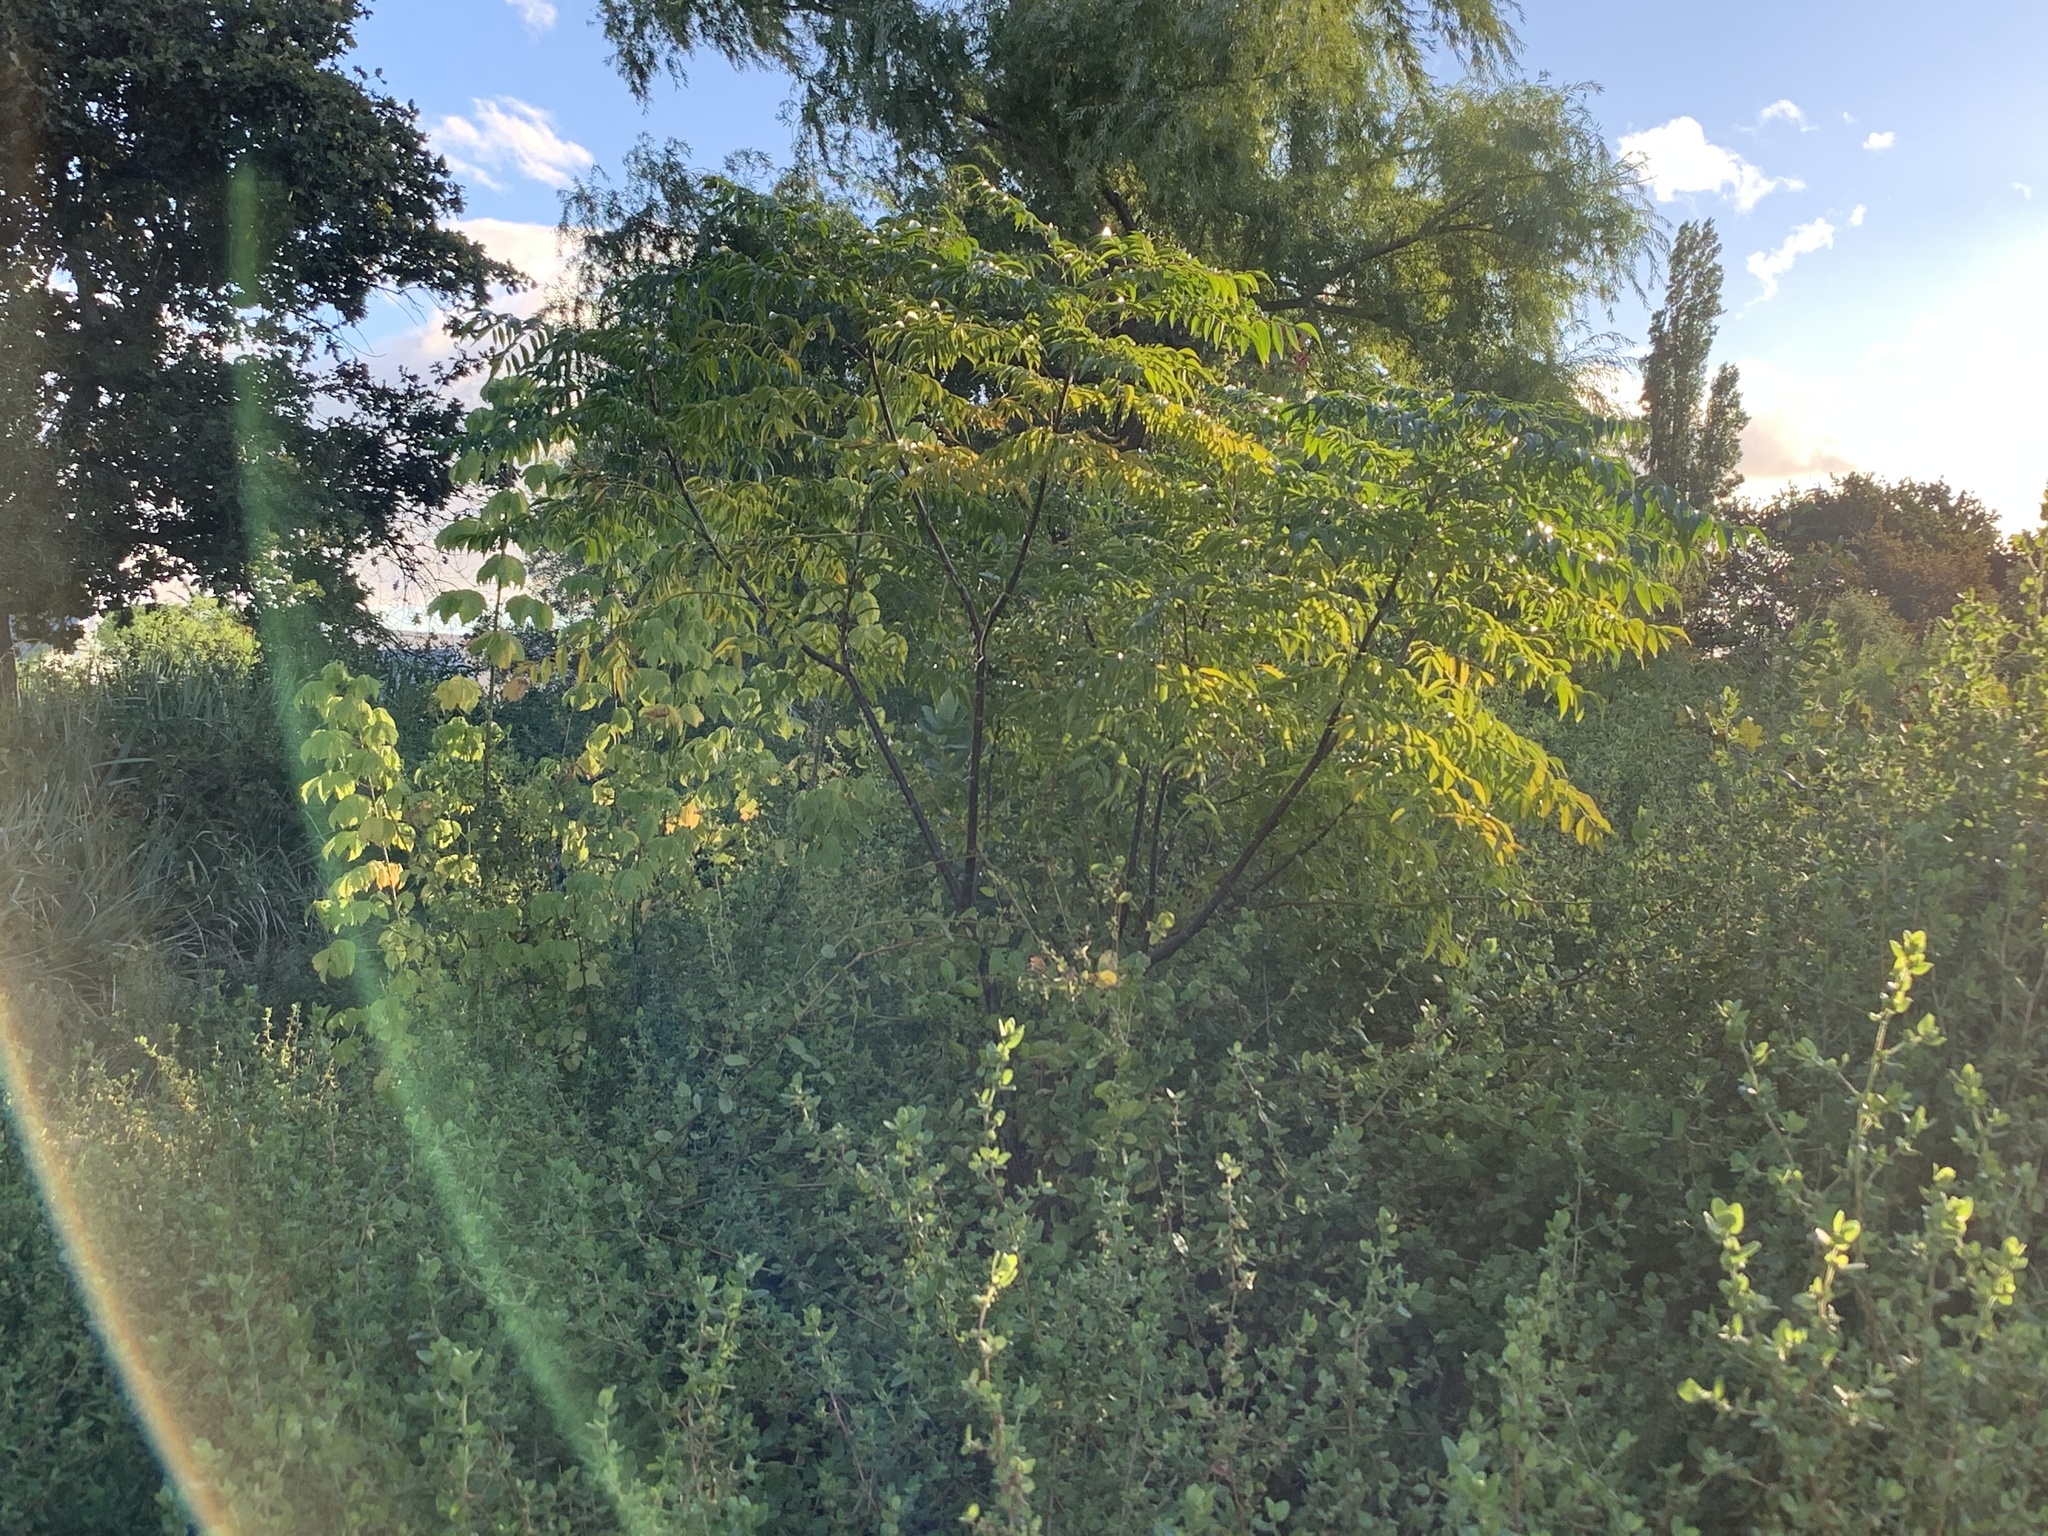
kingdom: Plantae
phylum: Tracheophyta
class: Magnoliopsida
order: Sapindales
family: Meliaceae
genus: Melia
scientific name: Melia azedarach
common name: Chinaberrytree
